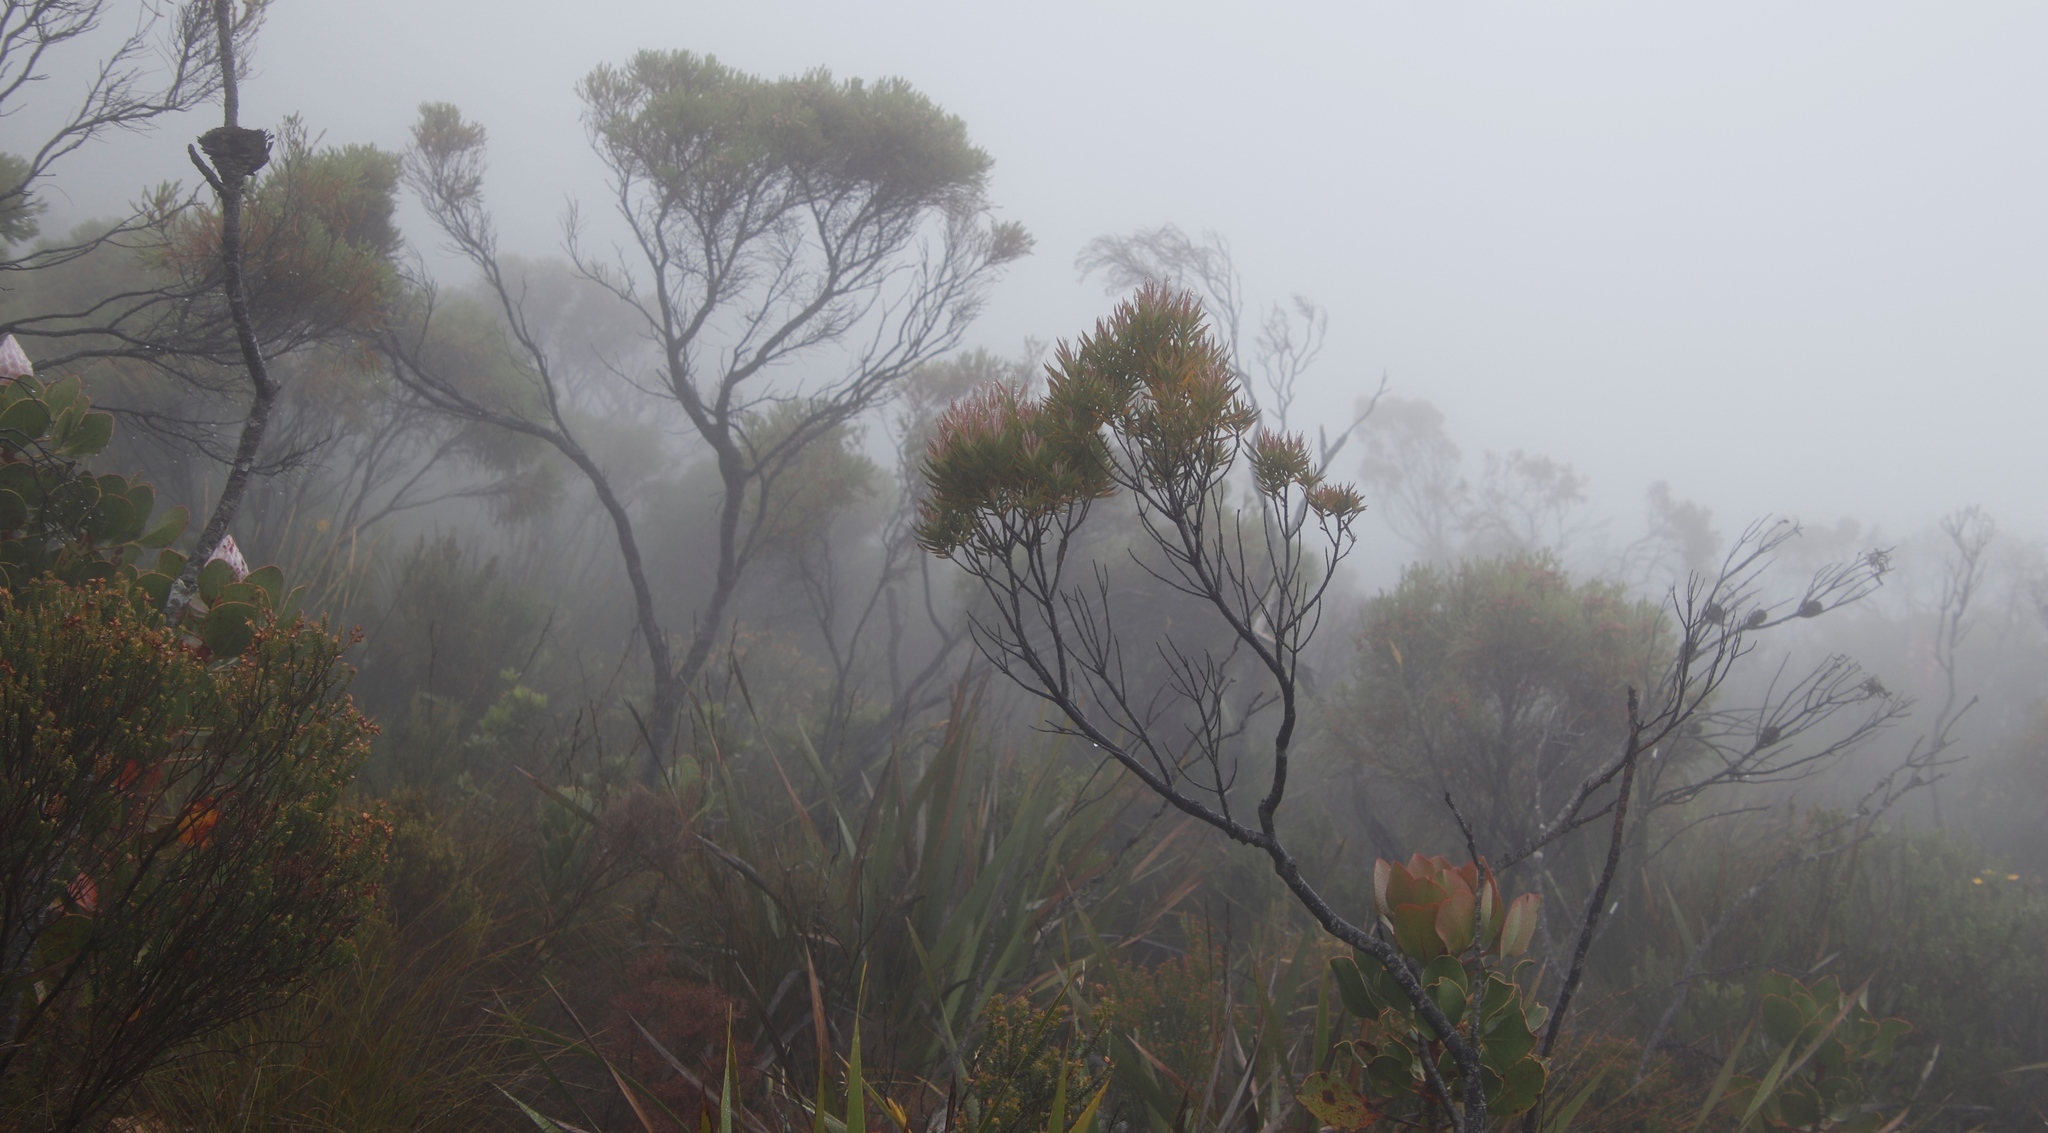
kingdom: Plantae
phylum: Tracheophyta
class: Magnoliopsida
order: Proteales
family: Proteaceae
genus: Leucadendron
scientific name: Leucadendron xanthoconus
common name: Sickle-leaf conebush
